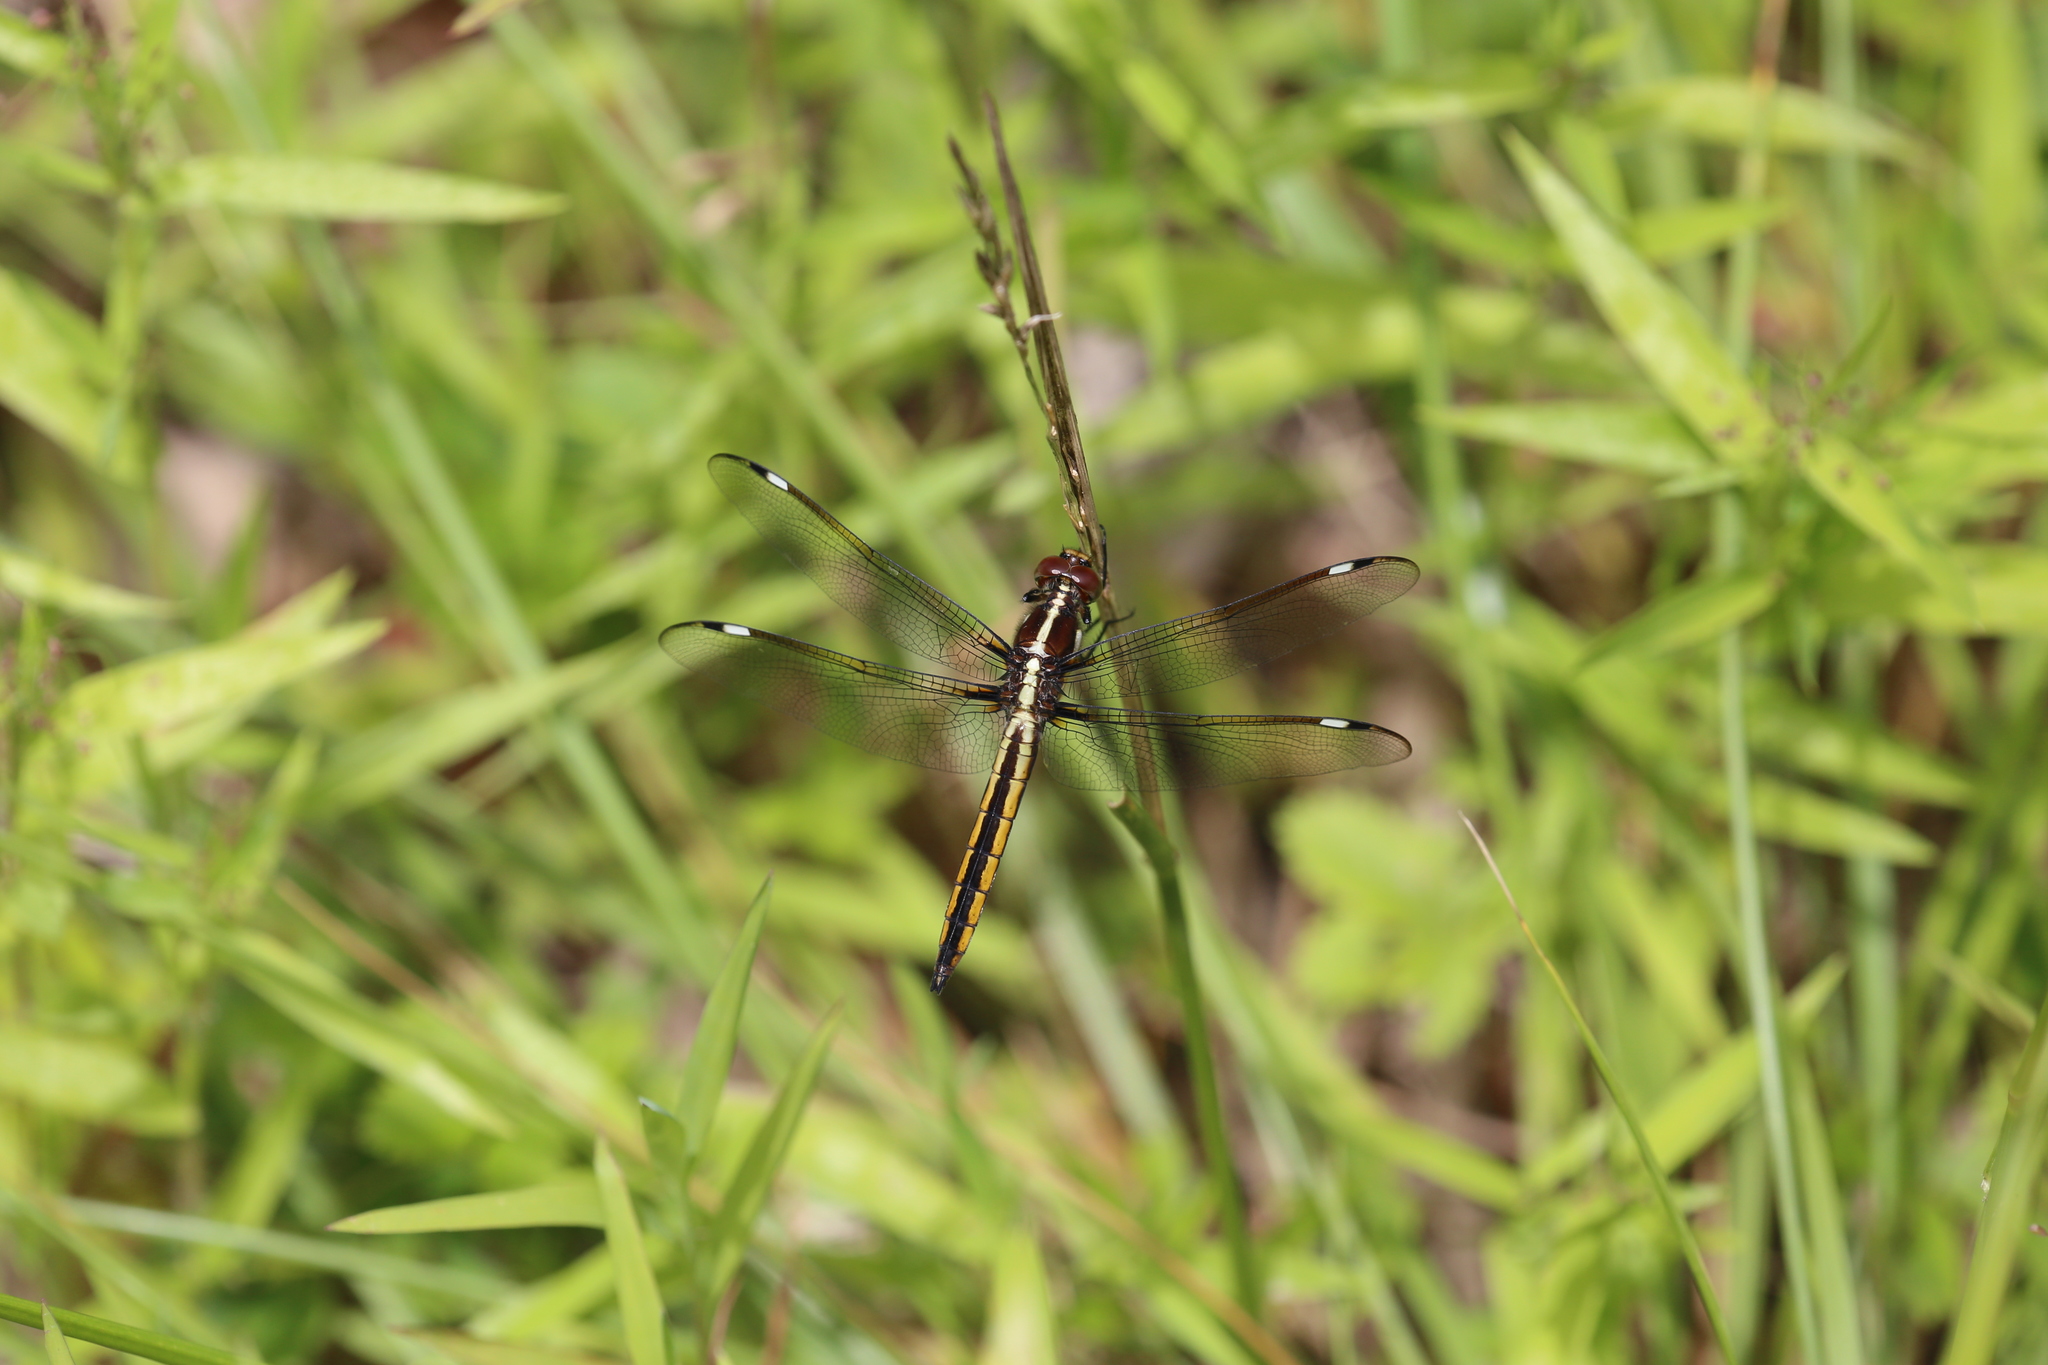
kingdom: Animalia
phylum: Arthropoda
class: Insecta
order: Odonata
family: Libellulidae
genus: Libellula
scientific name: Libellula cyanea
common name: Spangled skimmer
